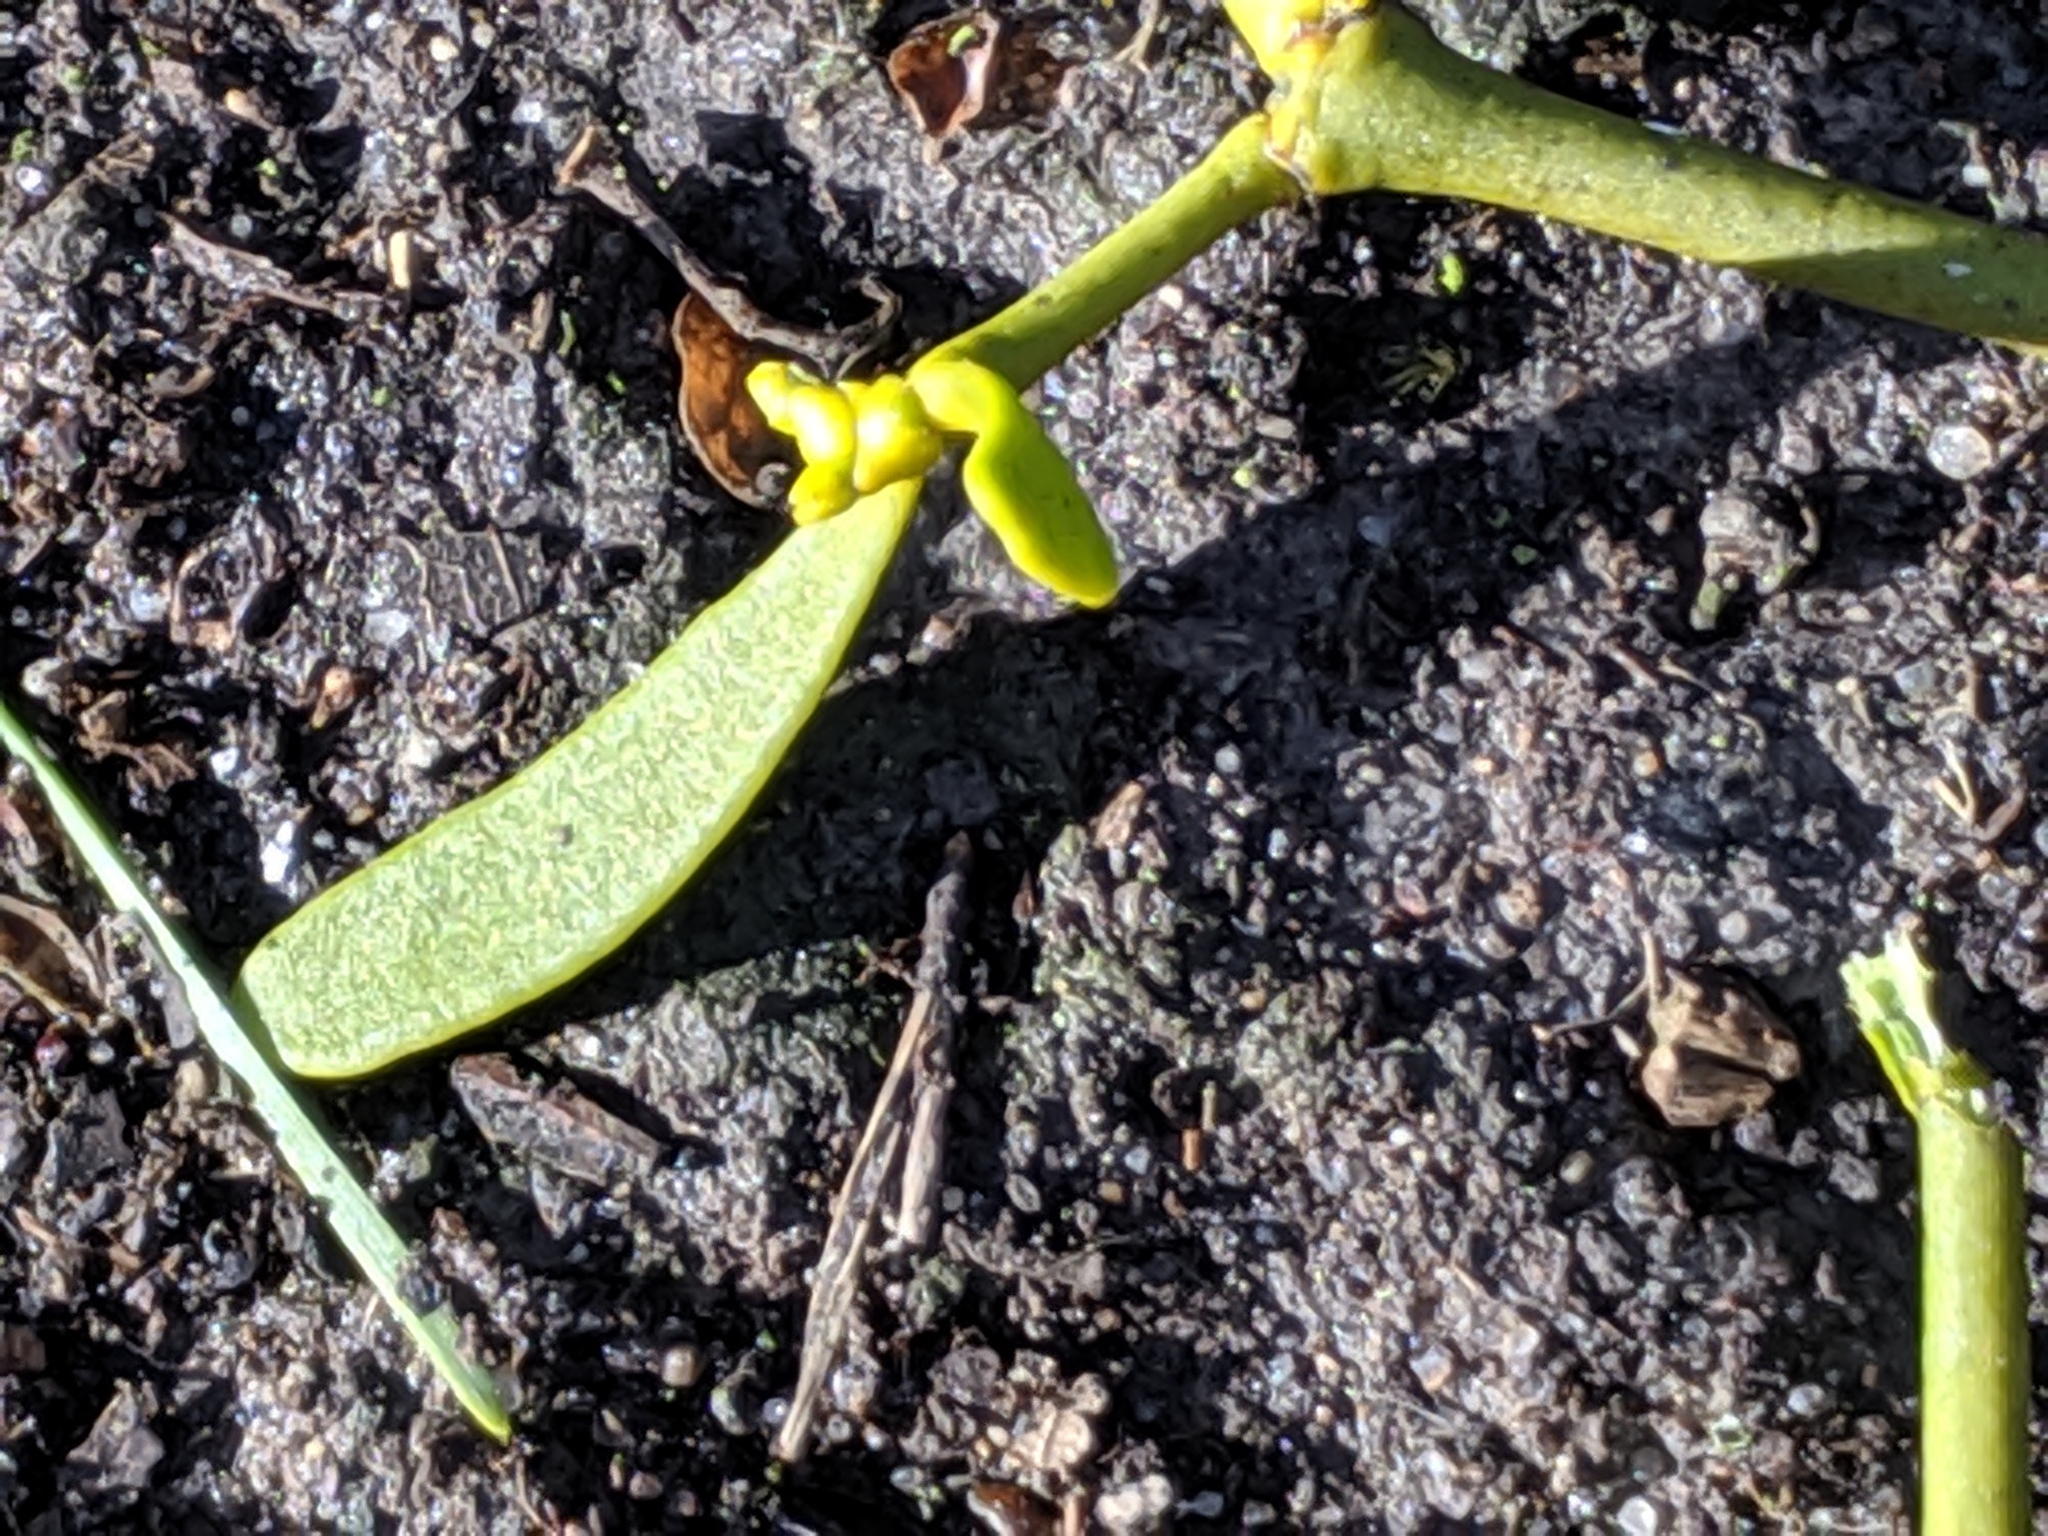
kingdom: Plantae
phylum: Tracheophyta
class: Magnoliopsida
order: Santalales
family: Viscaceae
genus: Viscum
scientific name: Viscum album
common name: Mistletoe
